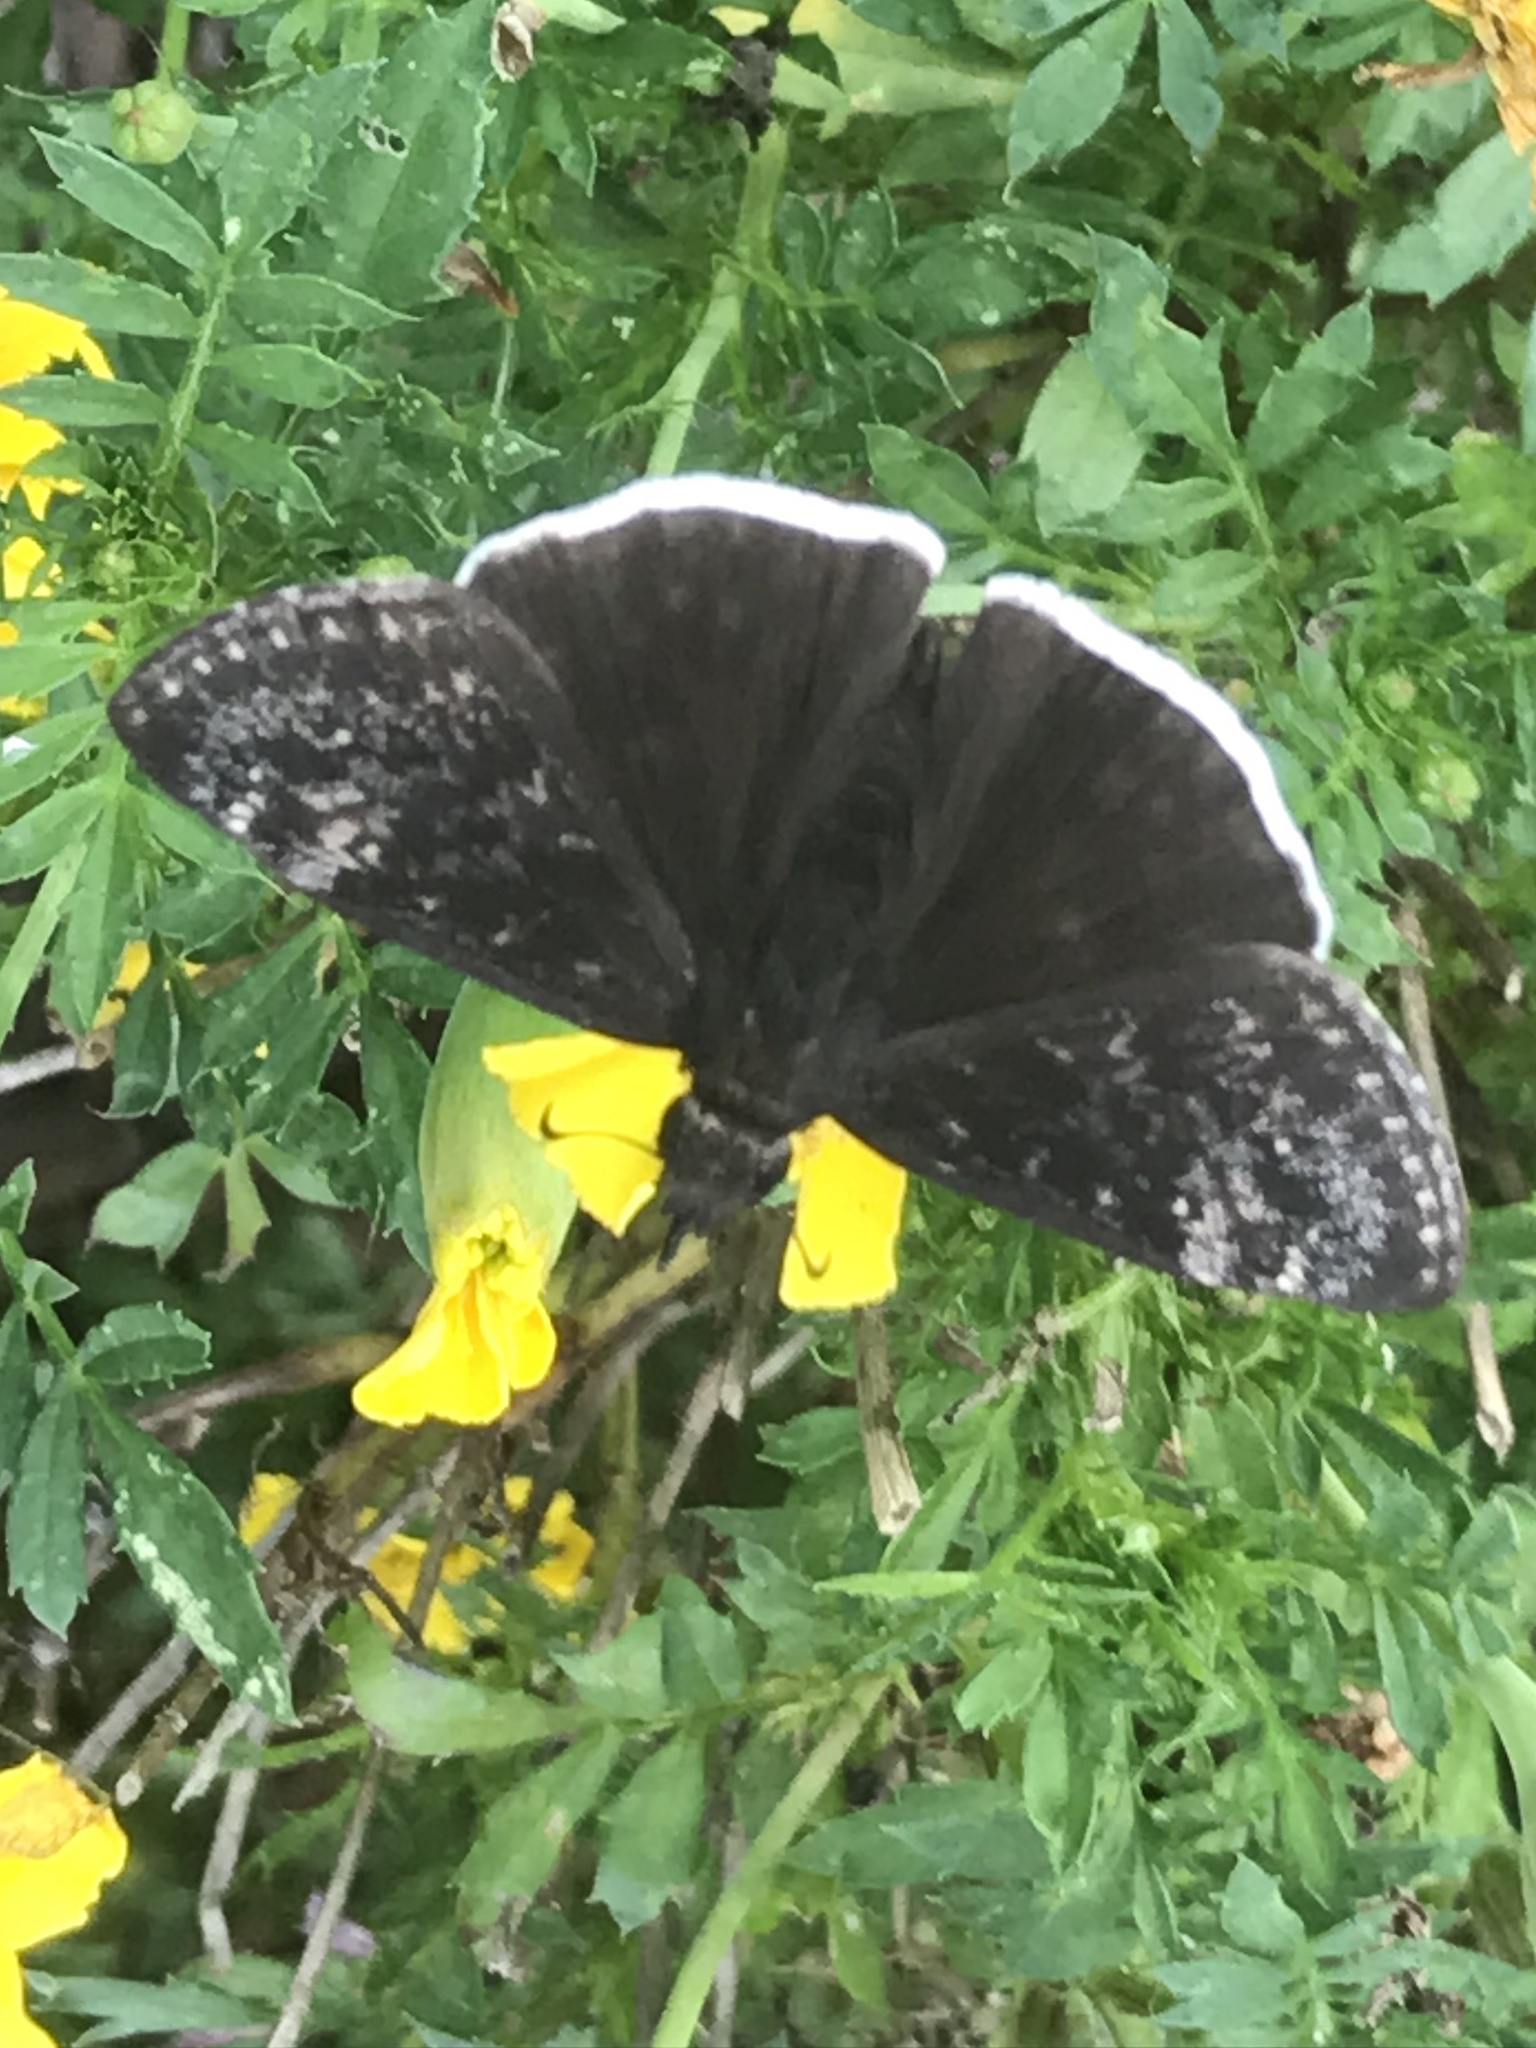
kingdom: Animalia
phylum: Arthropoda
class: Insecta
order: Lepidoptera
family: Hesperiidae
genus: Erynnis
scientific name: Erynnis funeralis
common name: Funereal duskywing
